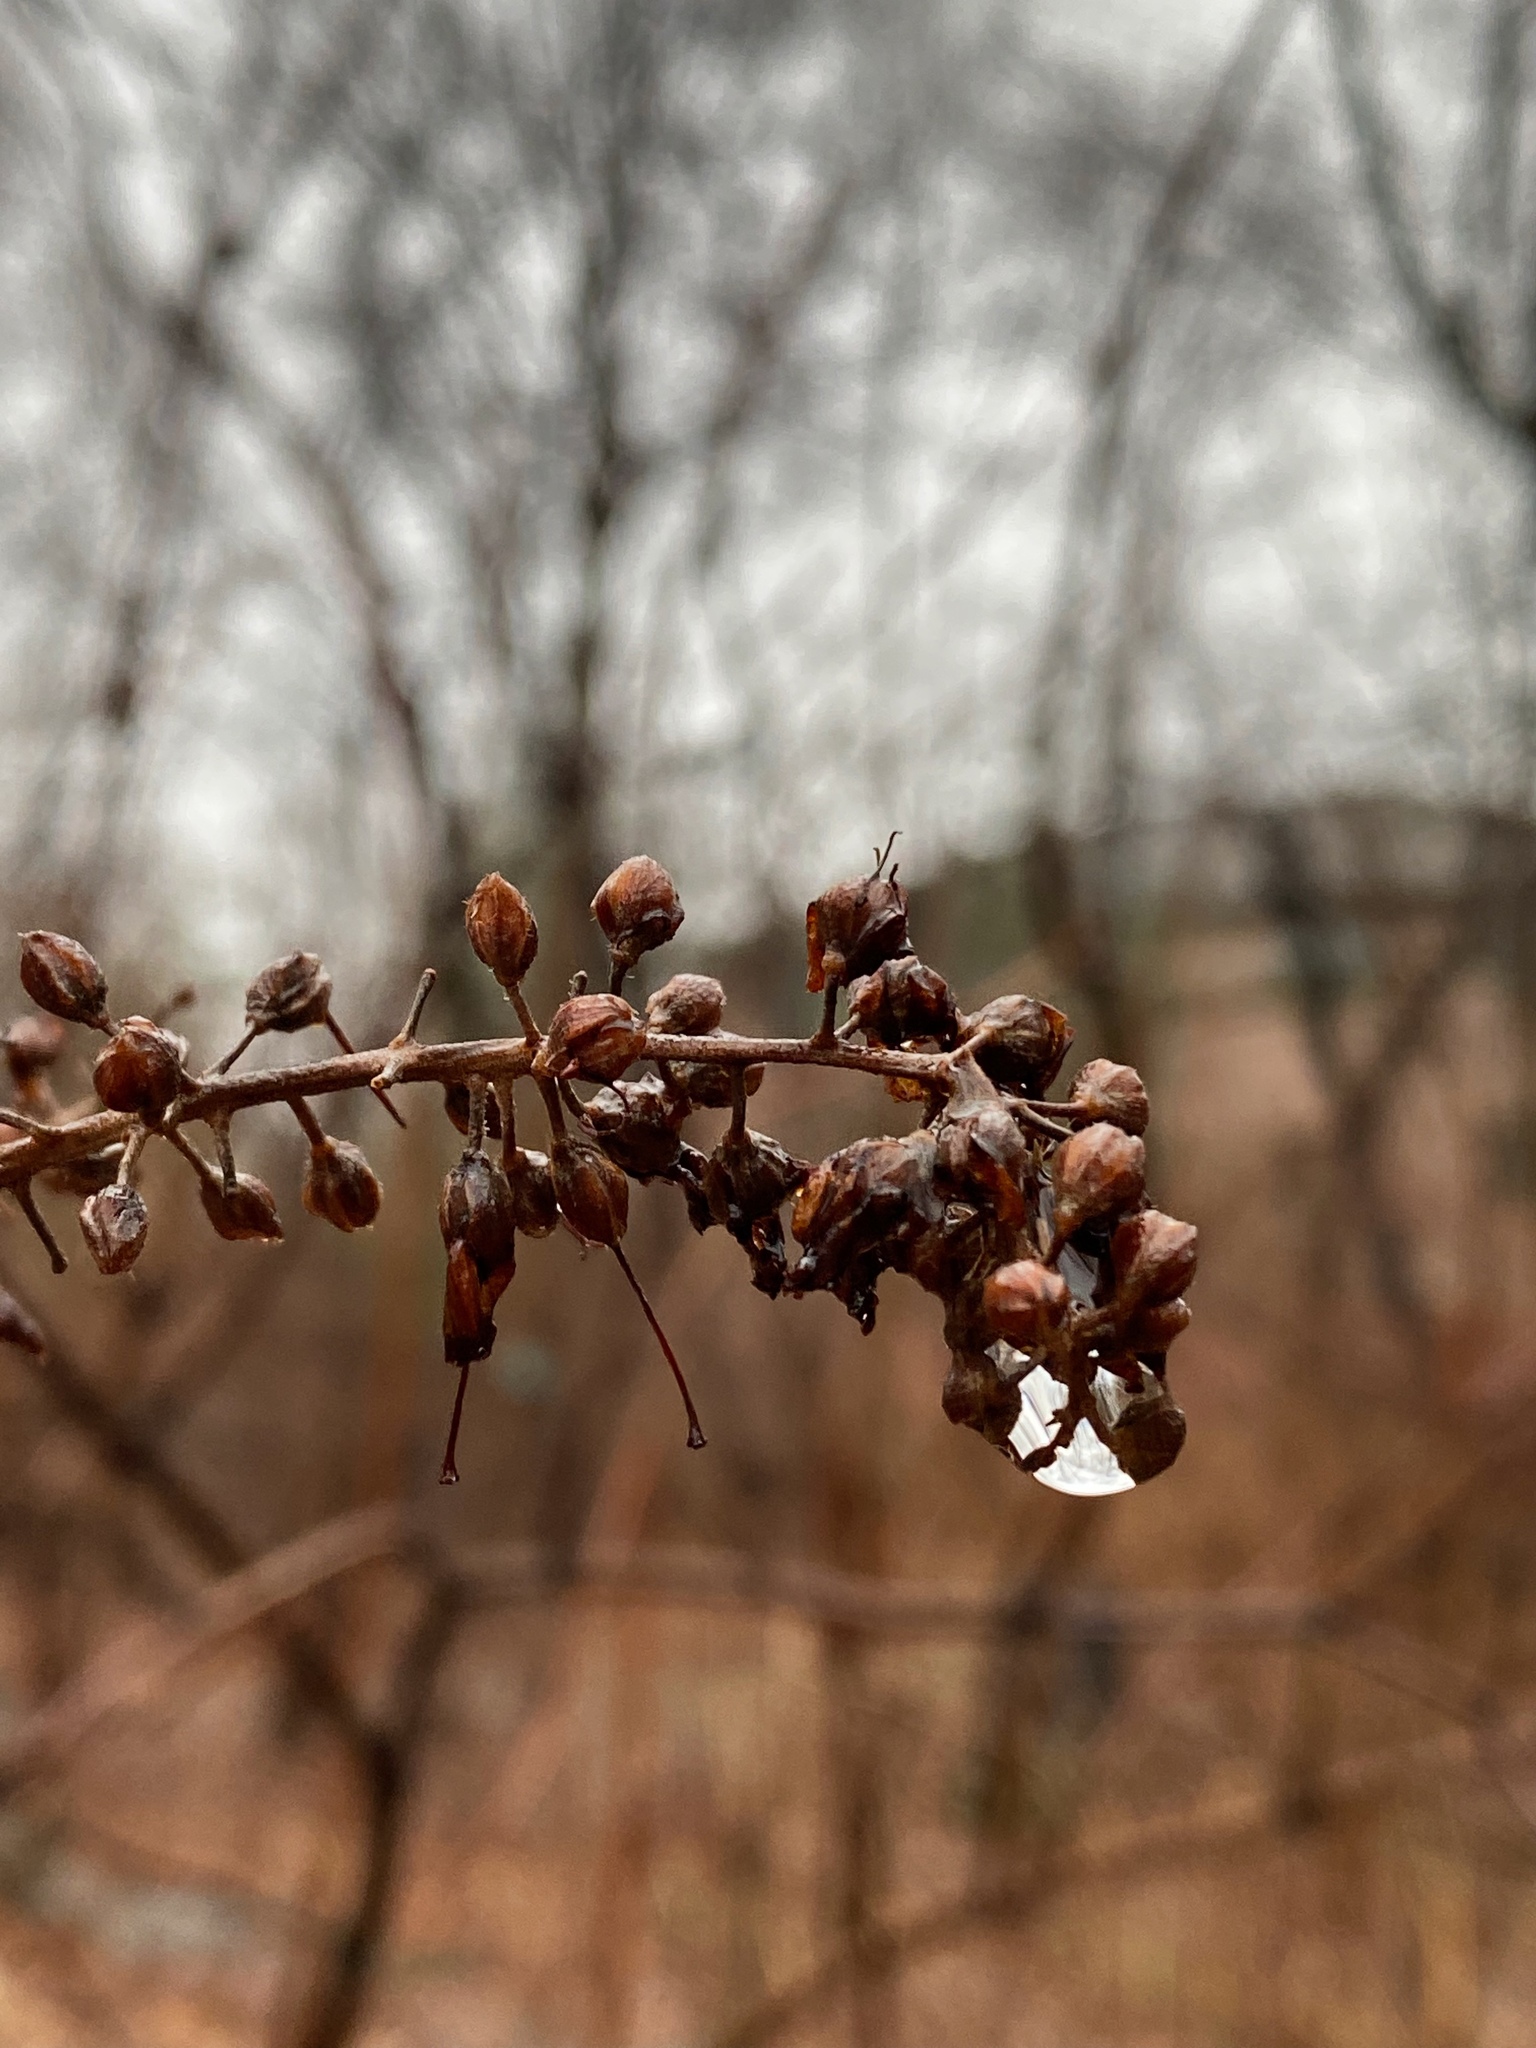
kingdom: Plantae
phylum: Tracheophyta
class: Magnoliopsida
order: Ericales
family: Clethraceae
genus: Clethra
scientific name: Clethra alnifolia
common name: Sweet pepperbush
